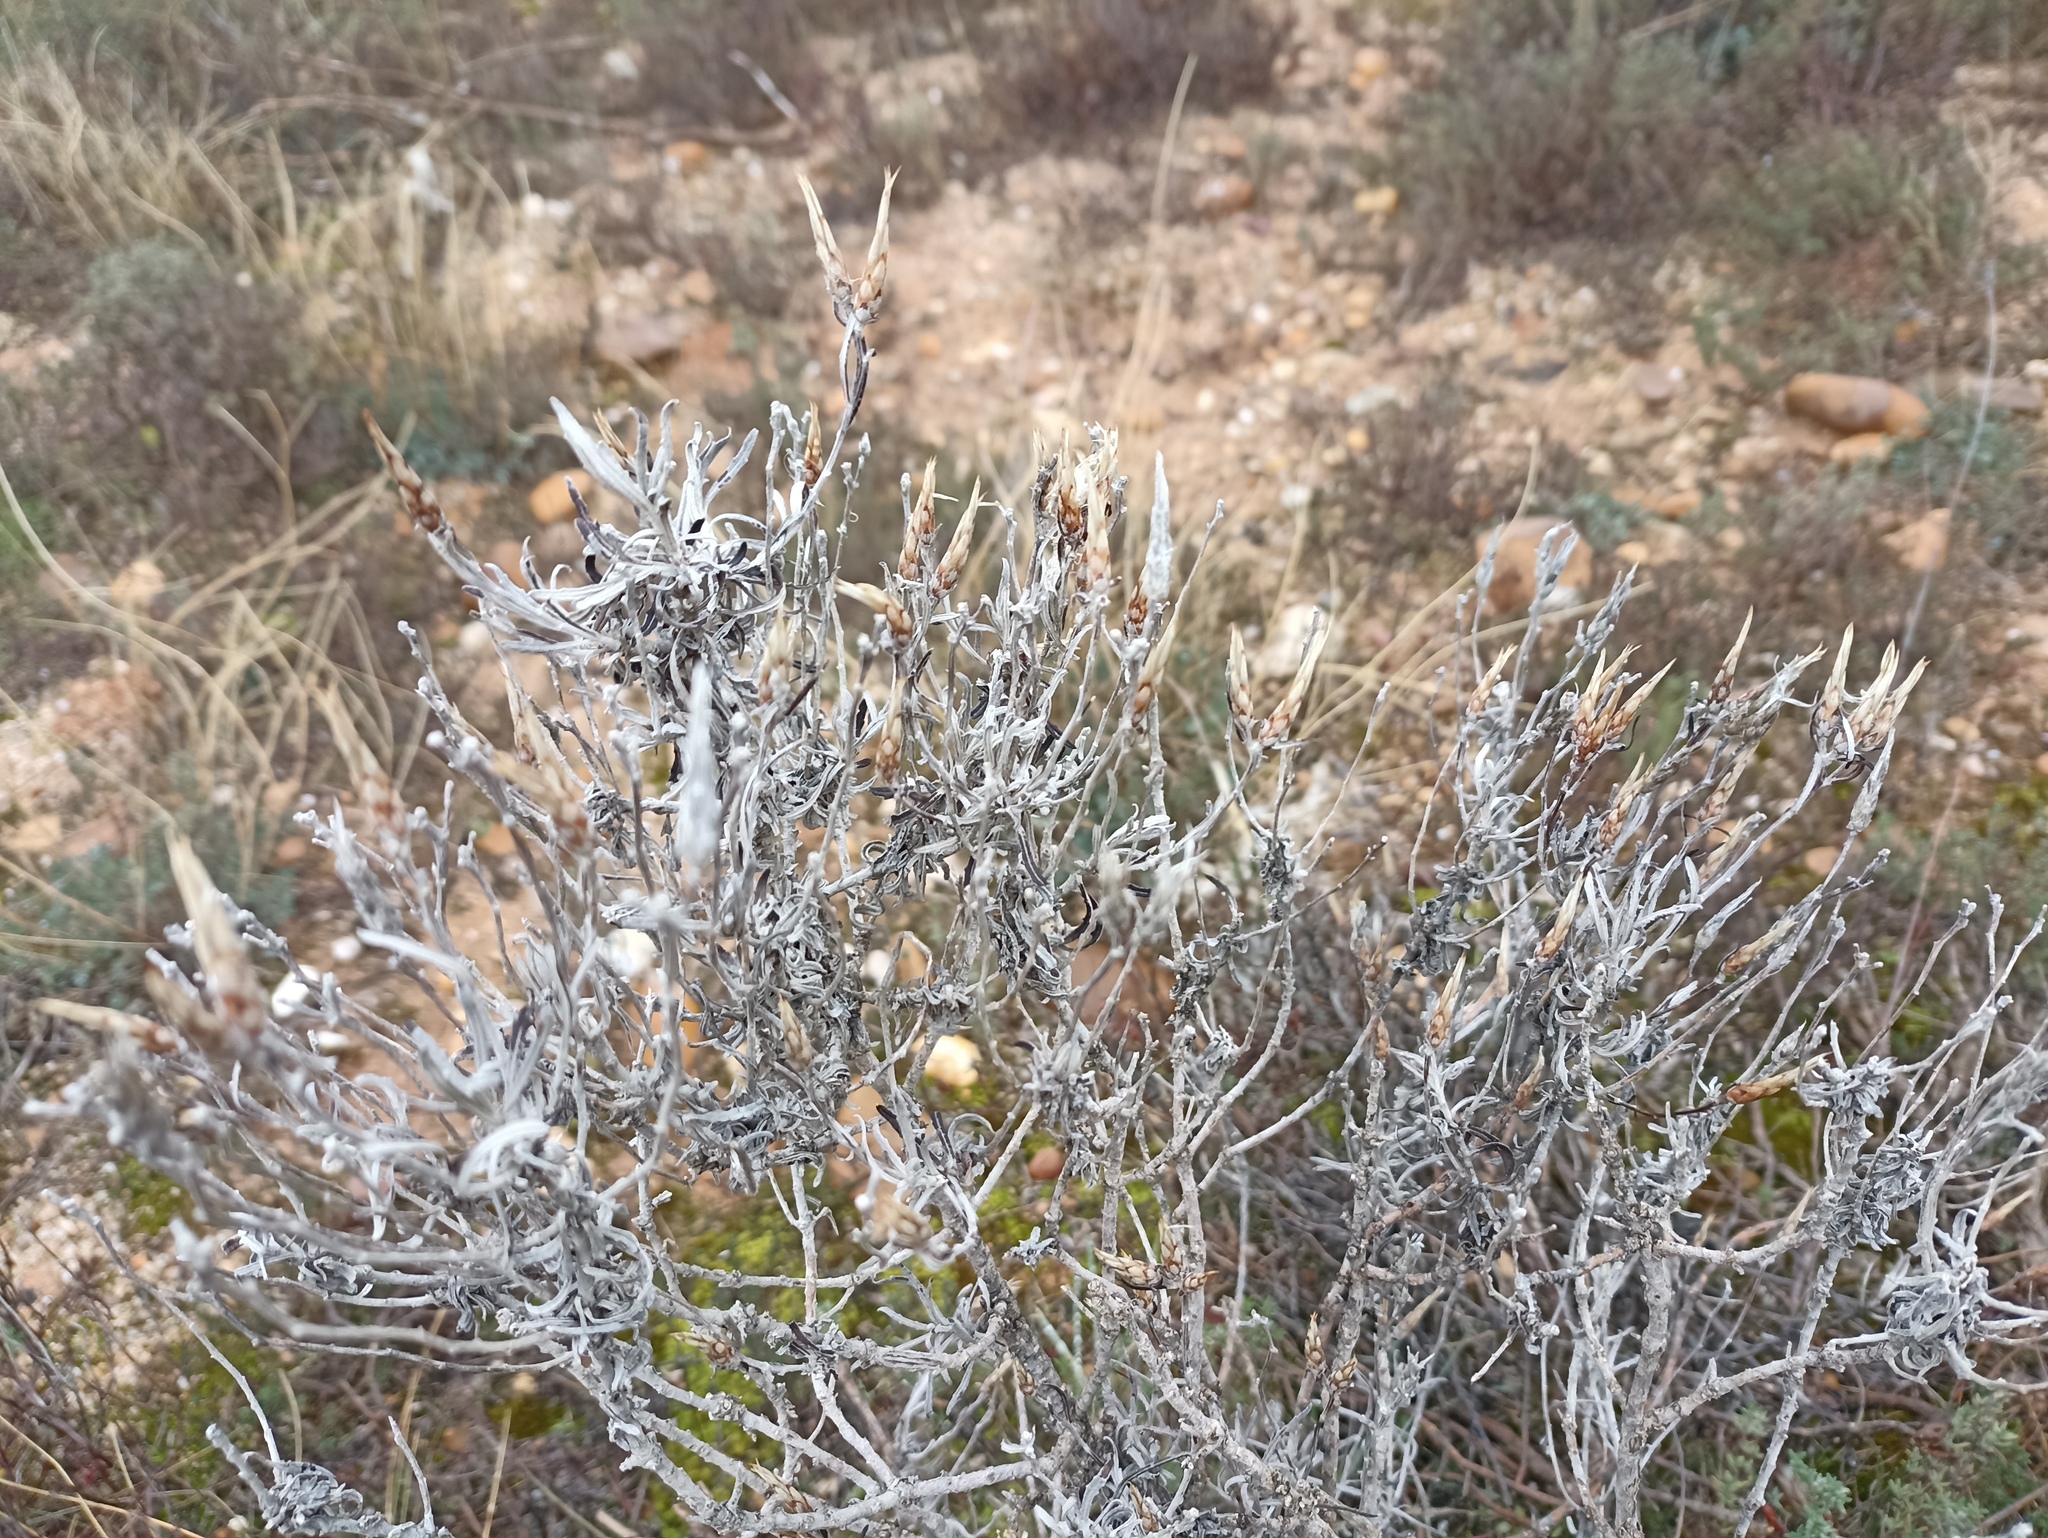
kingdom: Plantae
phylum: Tracheophyta
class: Magnoliopsida
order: Asterales
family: Asteraceae
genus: Staehelina
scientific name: Staehelina dubia
